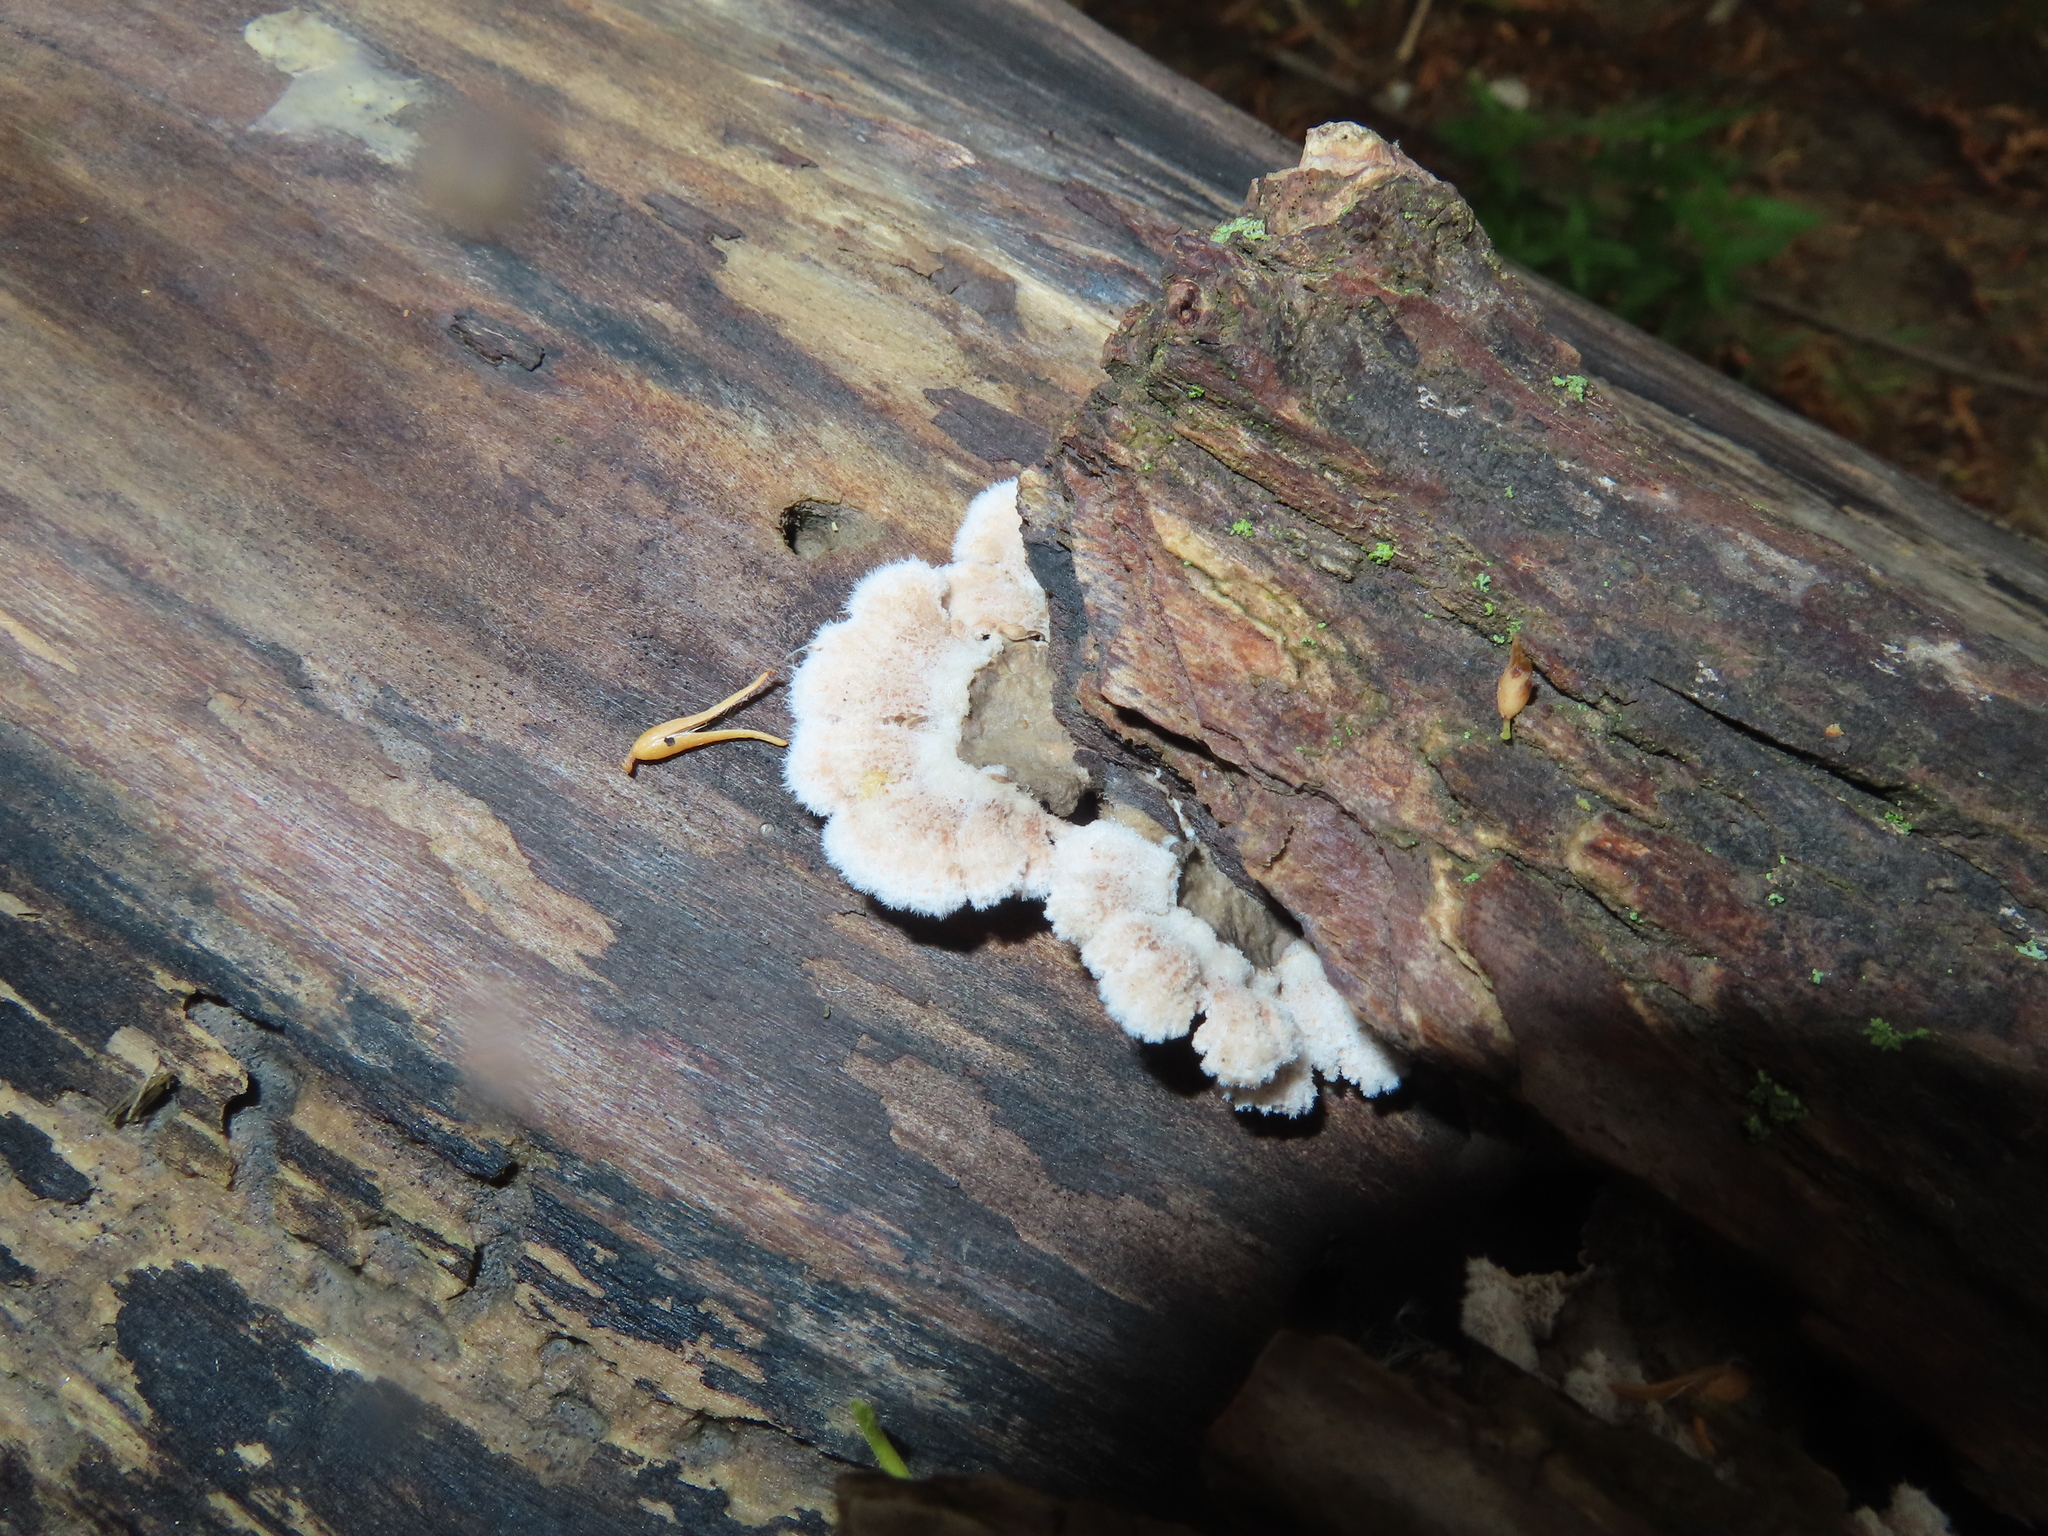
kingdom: Fungi
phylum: Basidiomycota
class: Agaricomycetes
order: Agaricales
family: Schizophyllaceae
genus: Schizophyllum
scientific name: Schizophyllum commune
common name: Common porecrust
